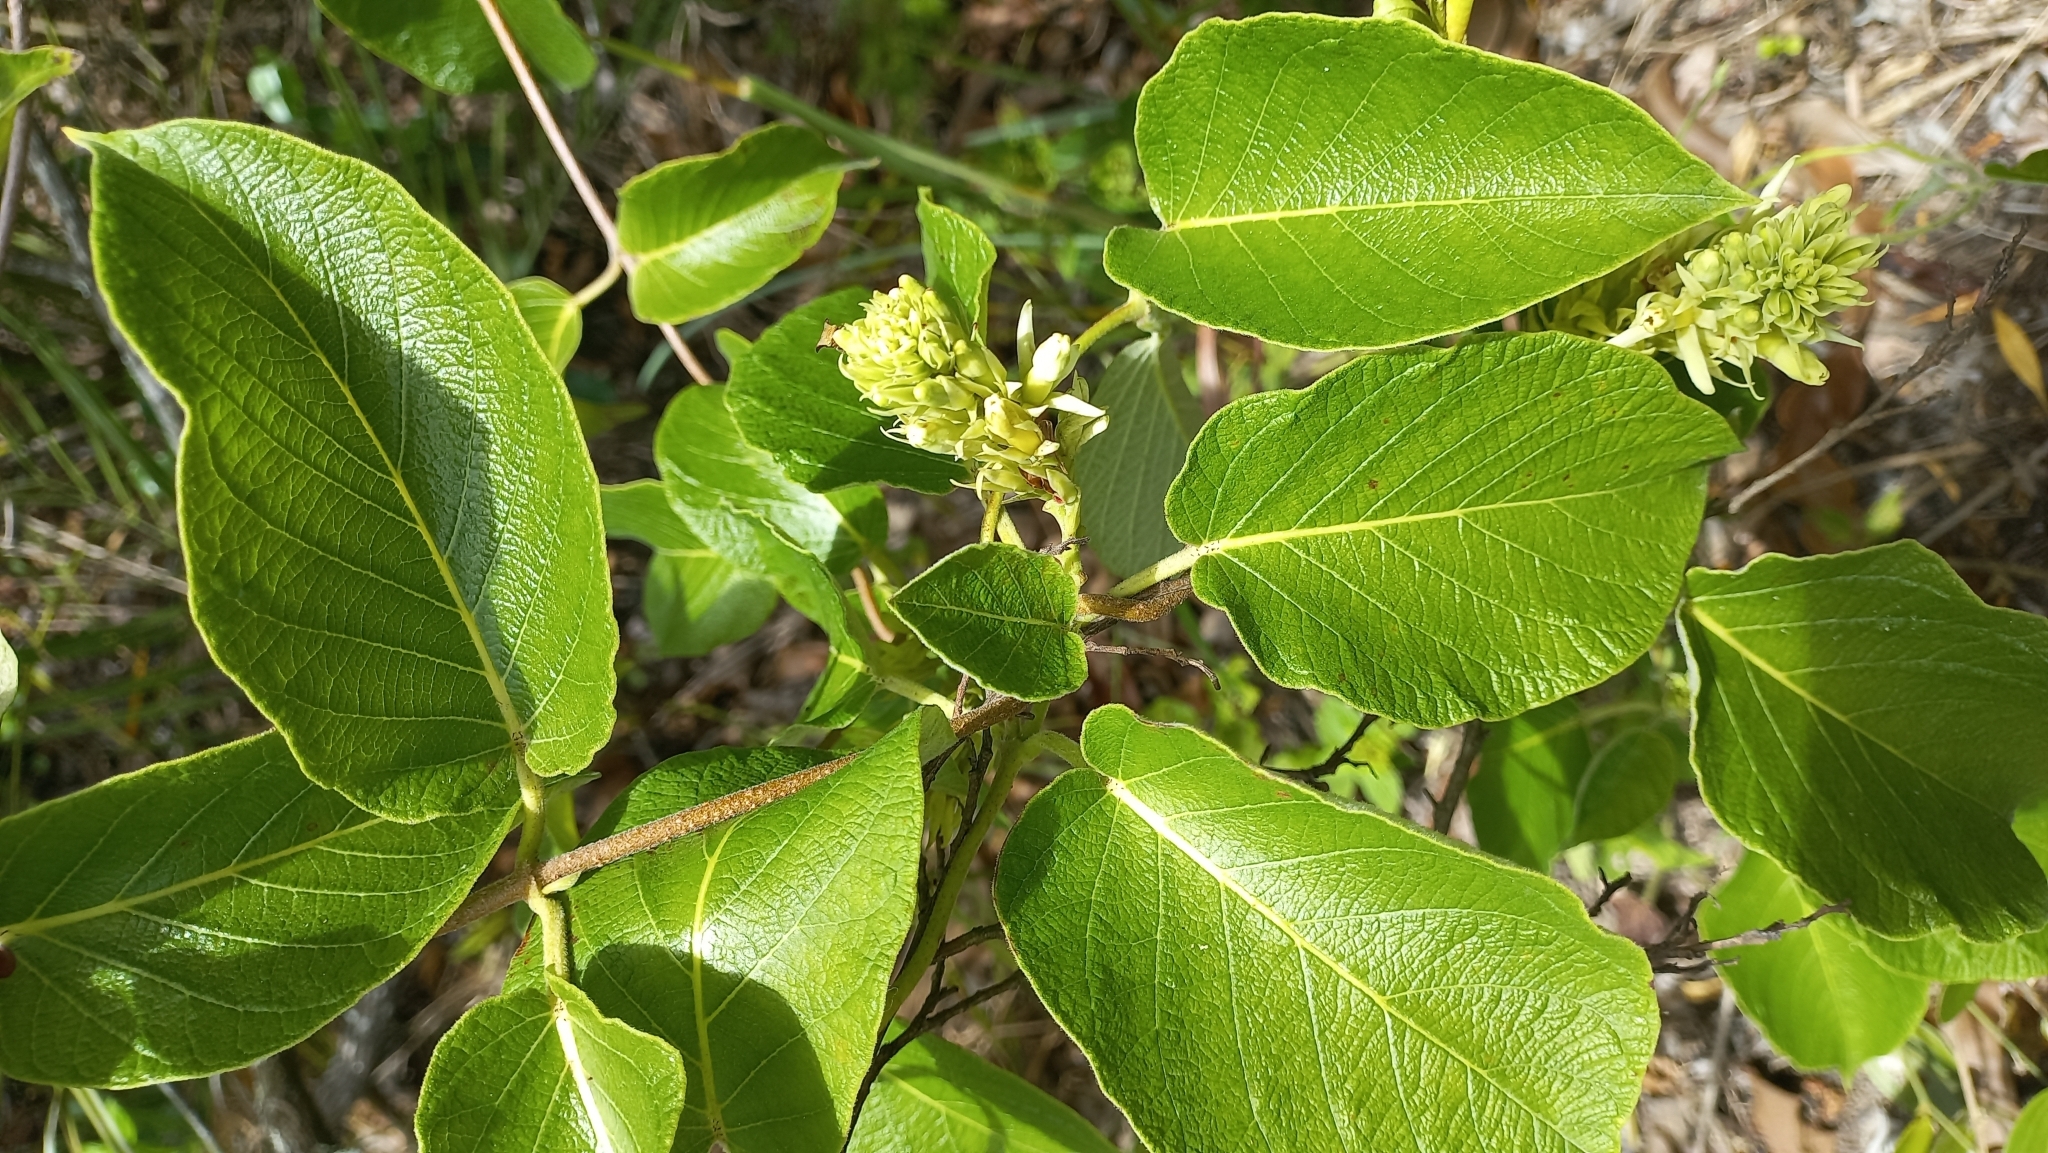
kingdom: Plantae
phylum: Tracheophyta
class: Magnoliopsida
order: Gentianales
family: Apocynaceae
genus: Mandevilla
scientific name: Mandevilla pentlandiana
